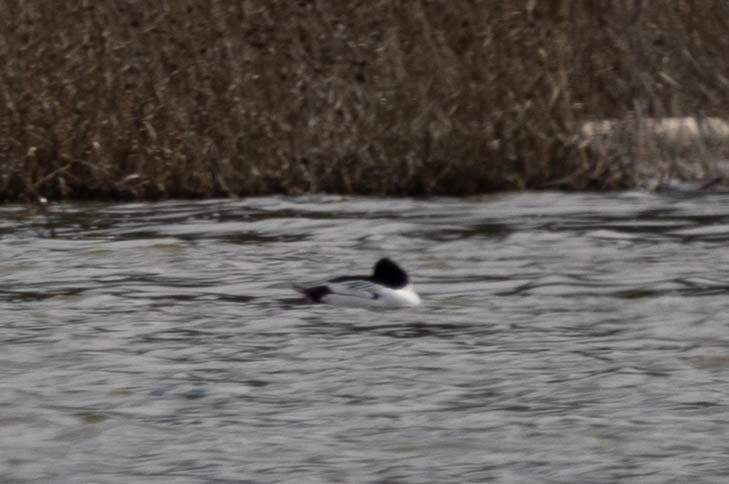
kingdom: Animalia
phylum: Chordata
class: Aves
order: Anseriformes
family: Anatidae
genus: Bucephala
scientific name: Bucephala clangula
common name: Common goldeneye
